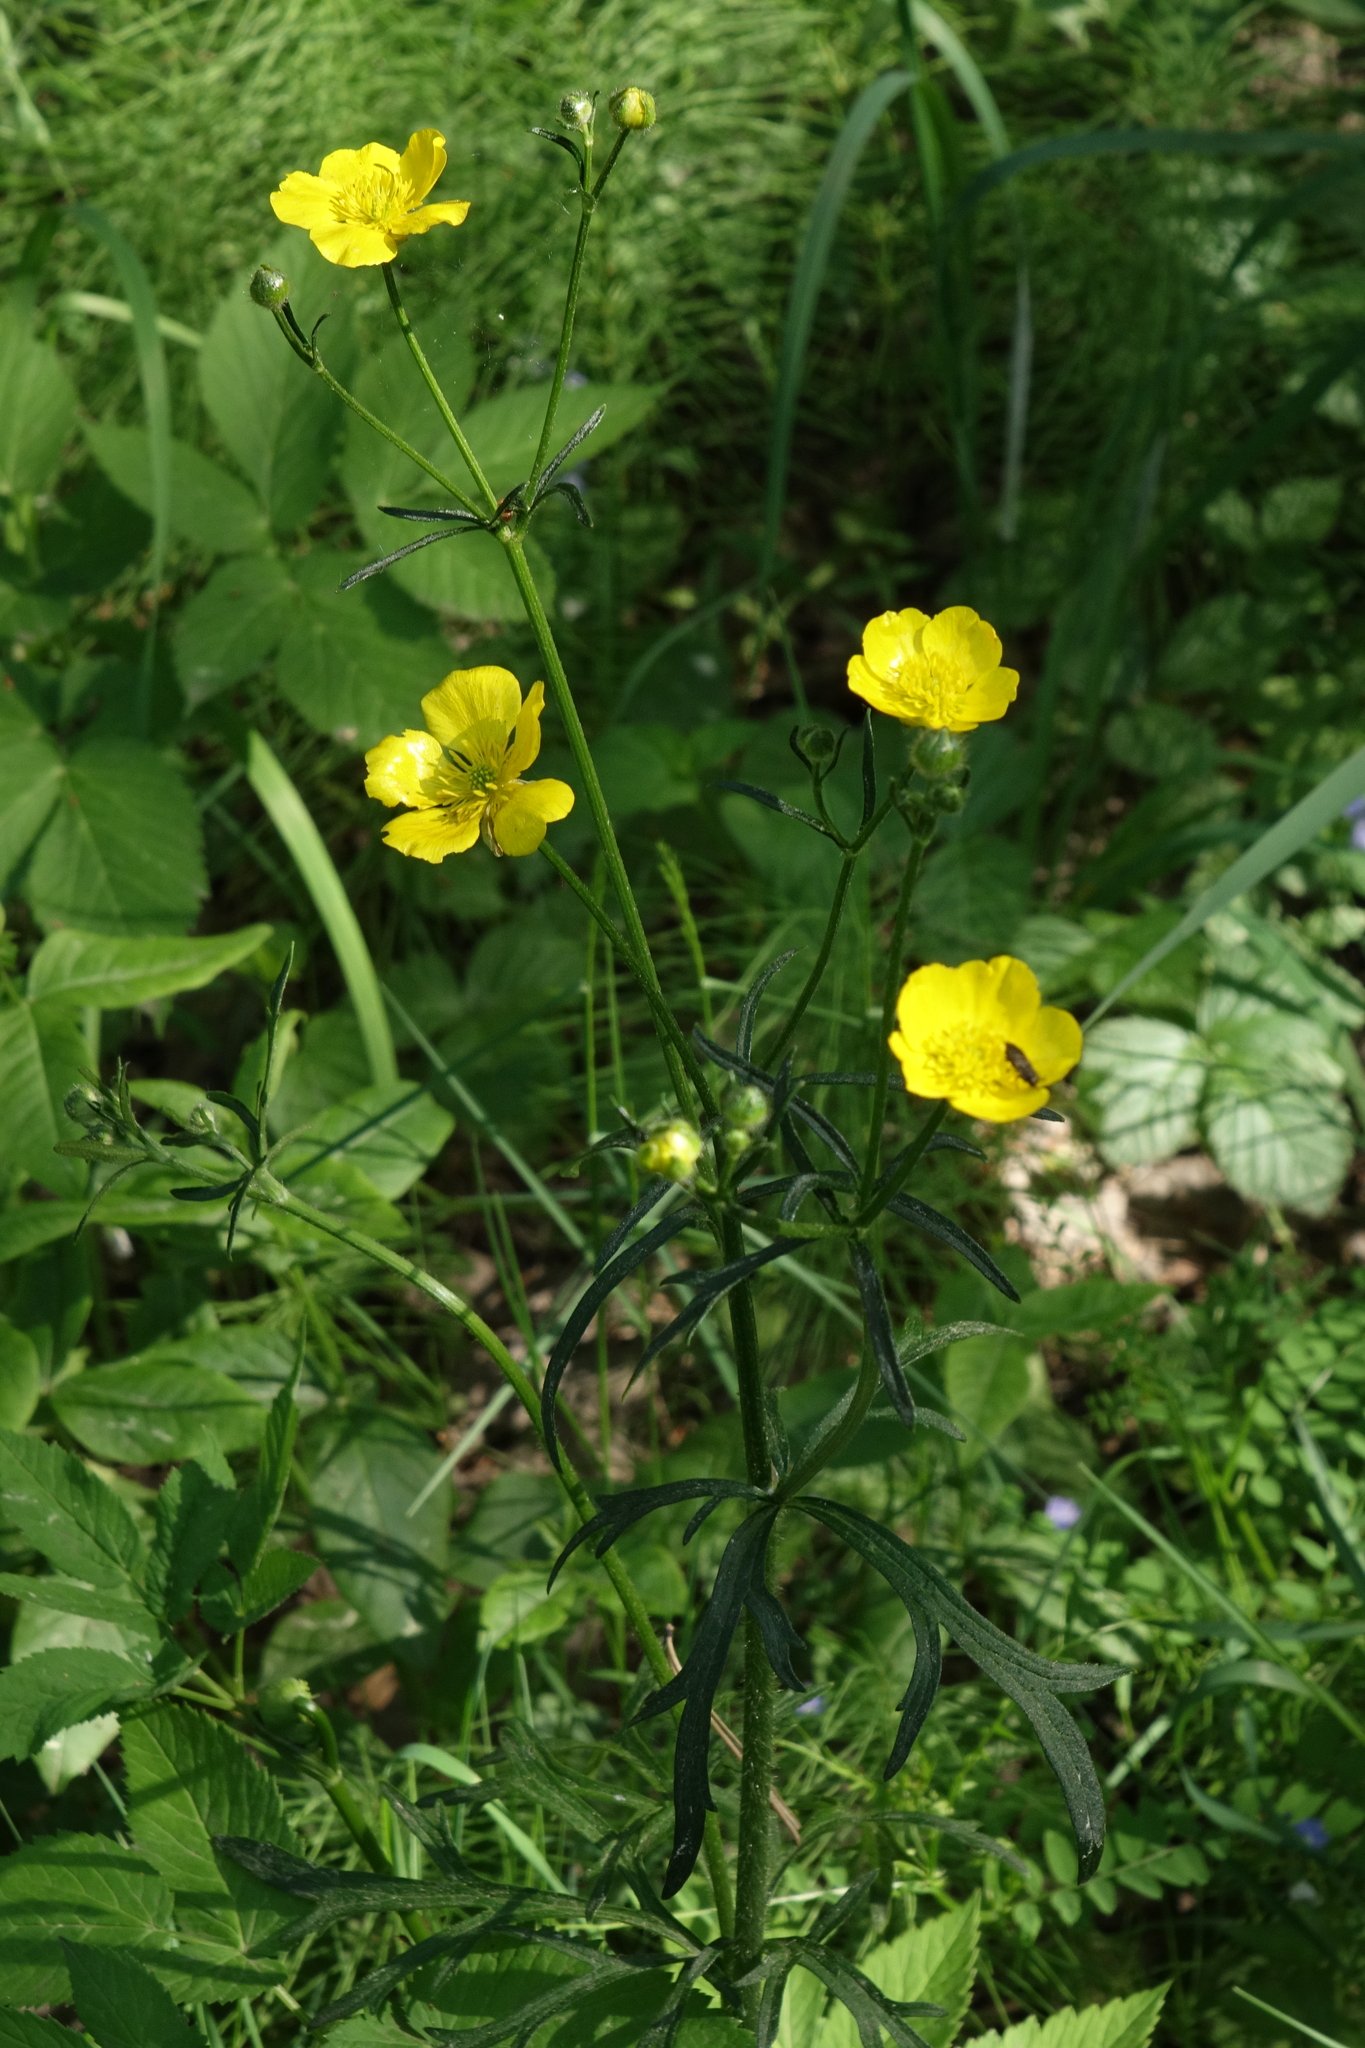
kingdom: Plantae
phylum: Tracheophyta
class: Magnoliopsida
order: Ranunculales
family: Ranunculaceae
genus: Ranunculus
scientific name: Ranunculus polyanthemos
